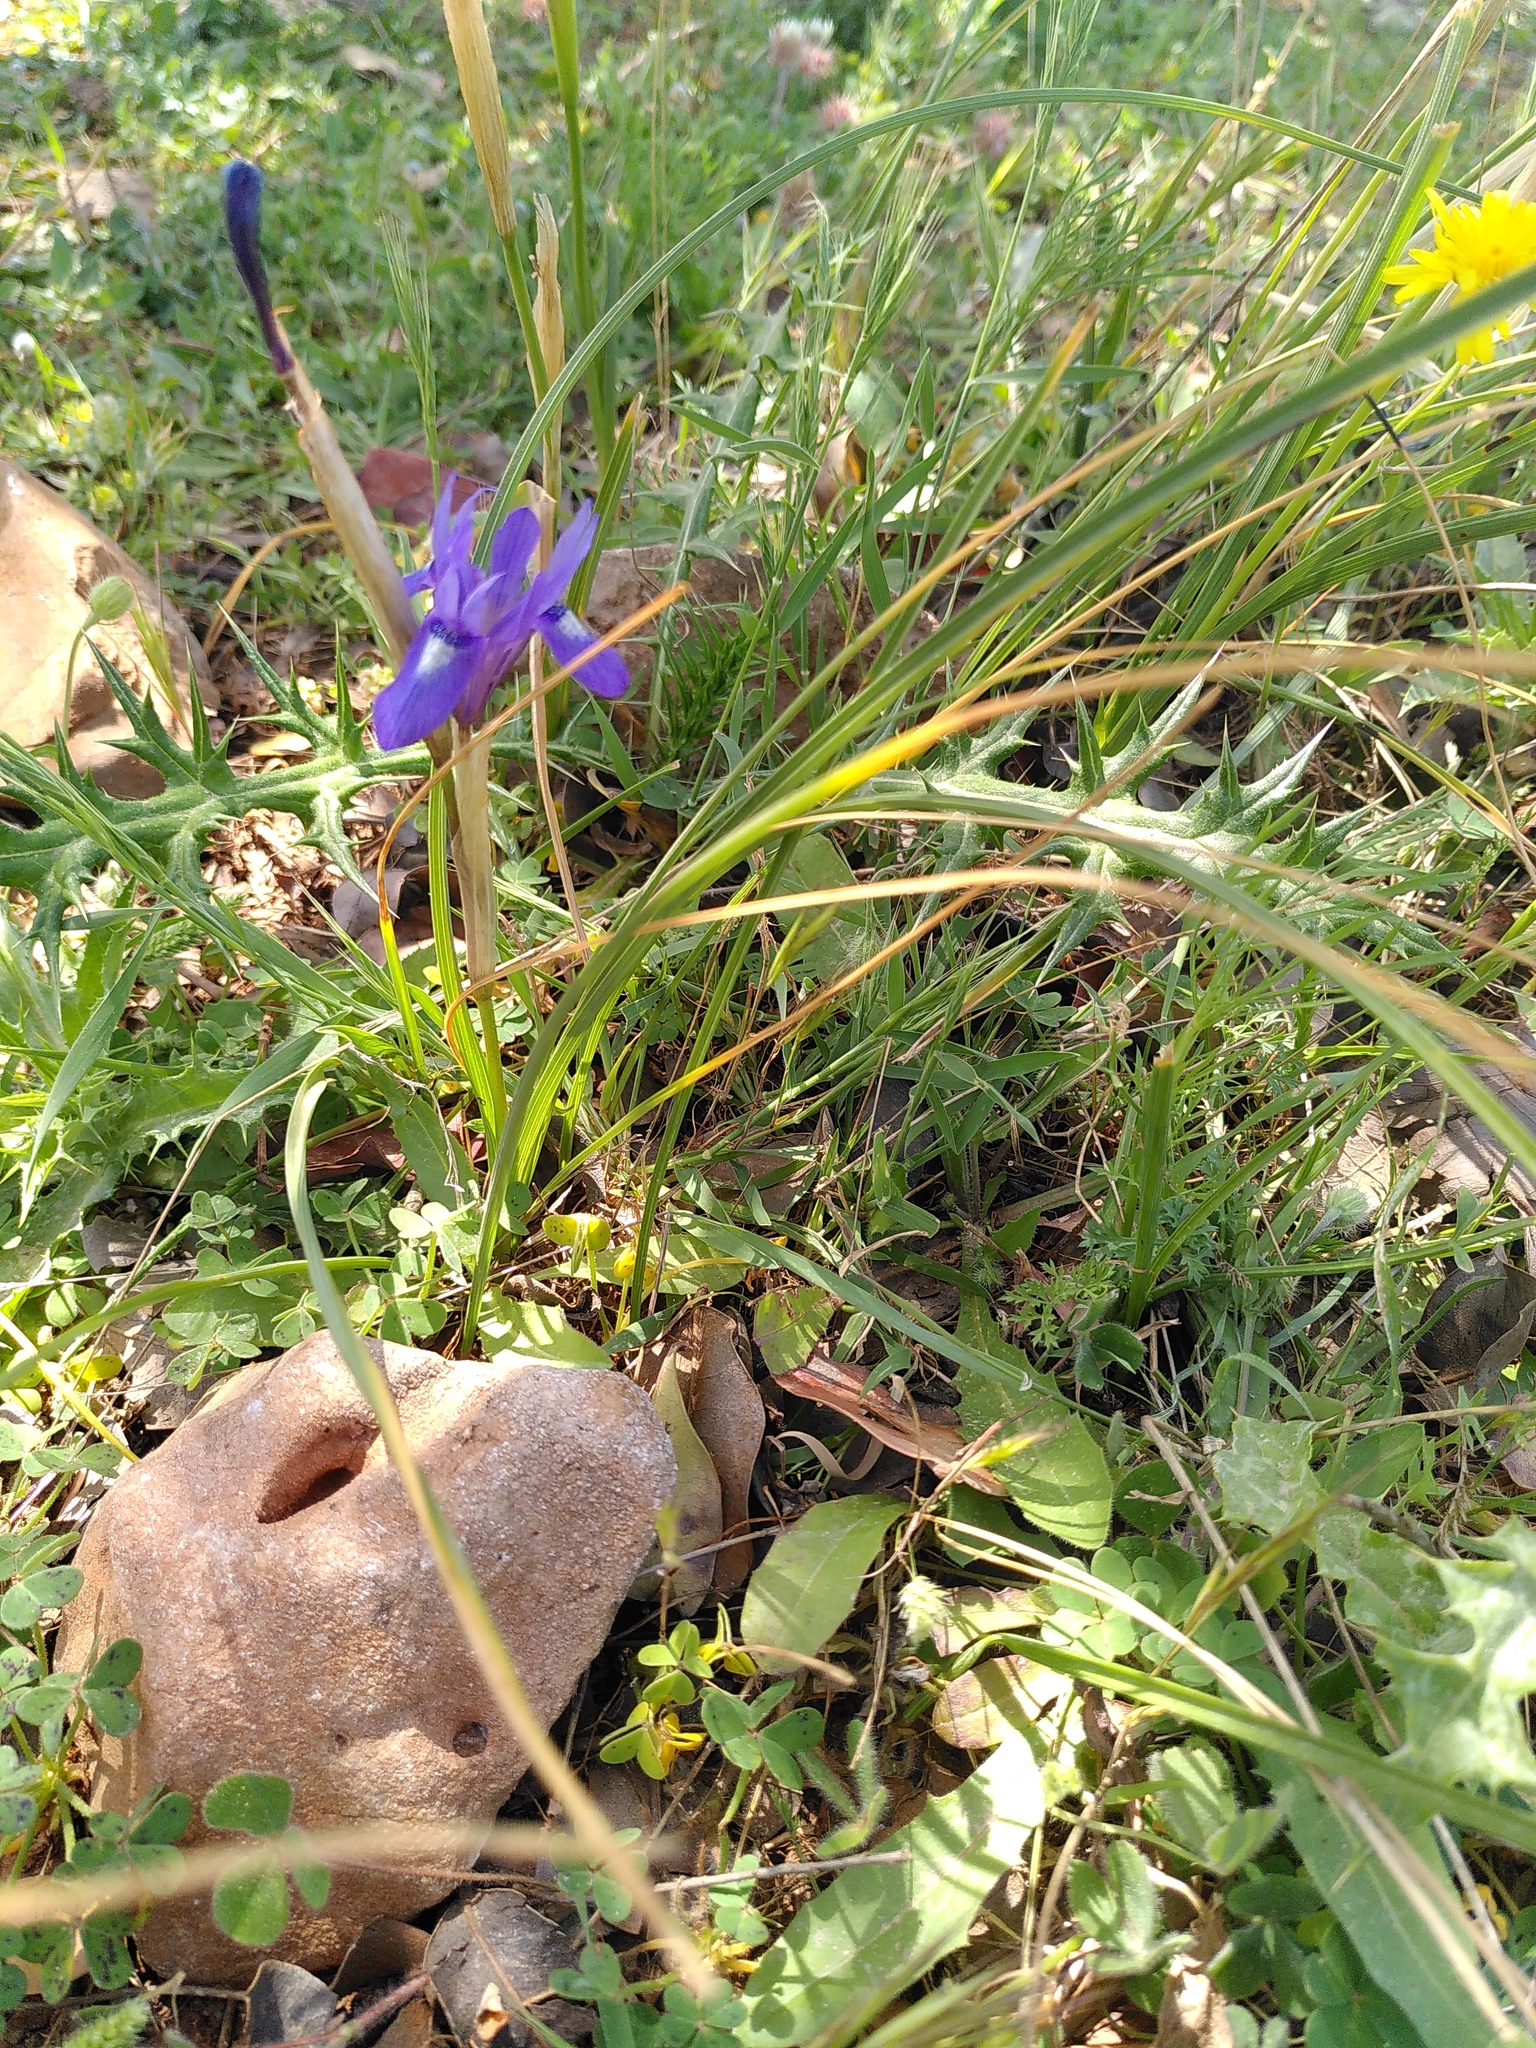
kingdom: Plantae
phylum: Tracheophyta
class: Liliopsida
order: Asparagales
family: Iridaceae
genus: Moraea
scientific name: Moraea sisyrinchium
